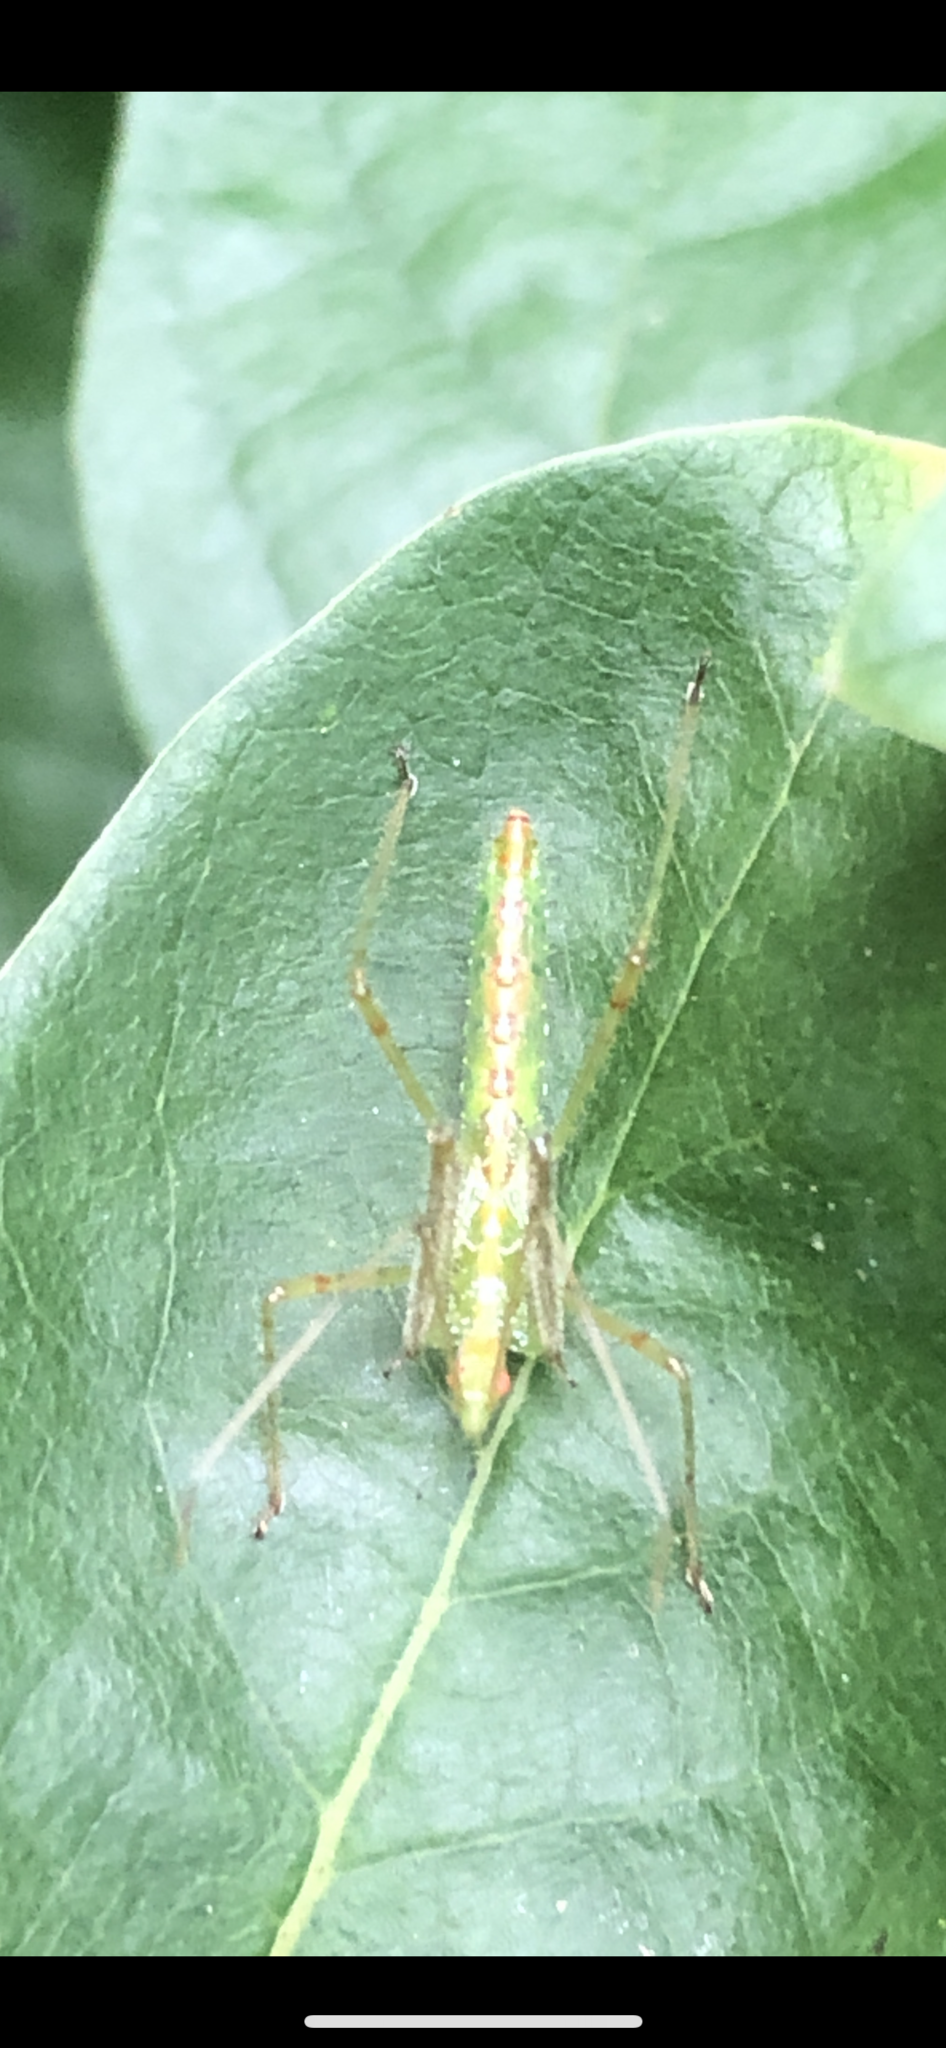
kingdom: Animalia
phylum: Arthropoda
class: Insecta
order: Hemiptera
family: Reduviidae
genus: Zelus
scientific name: Zelus luridus
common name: Pale green assassin bug
